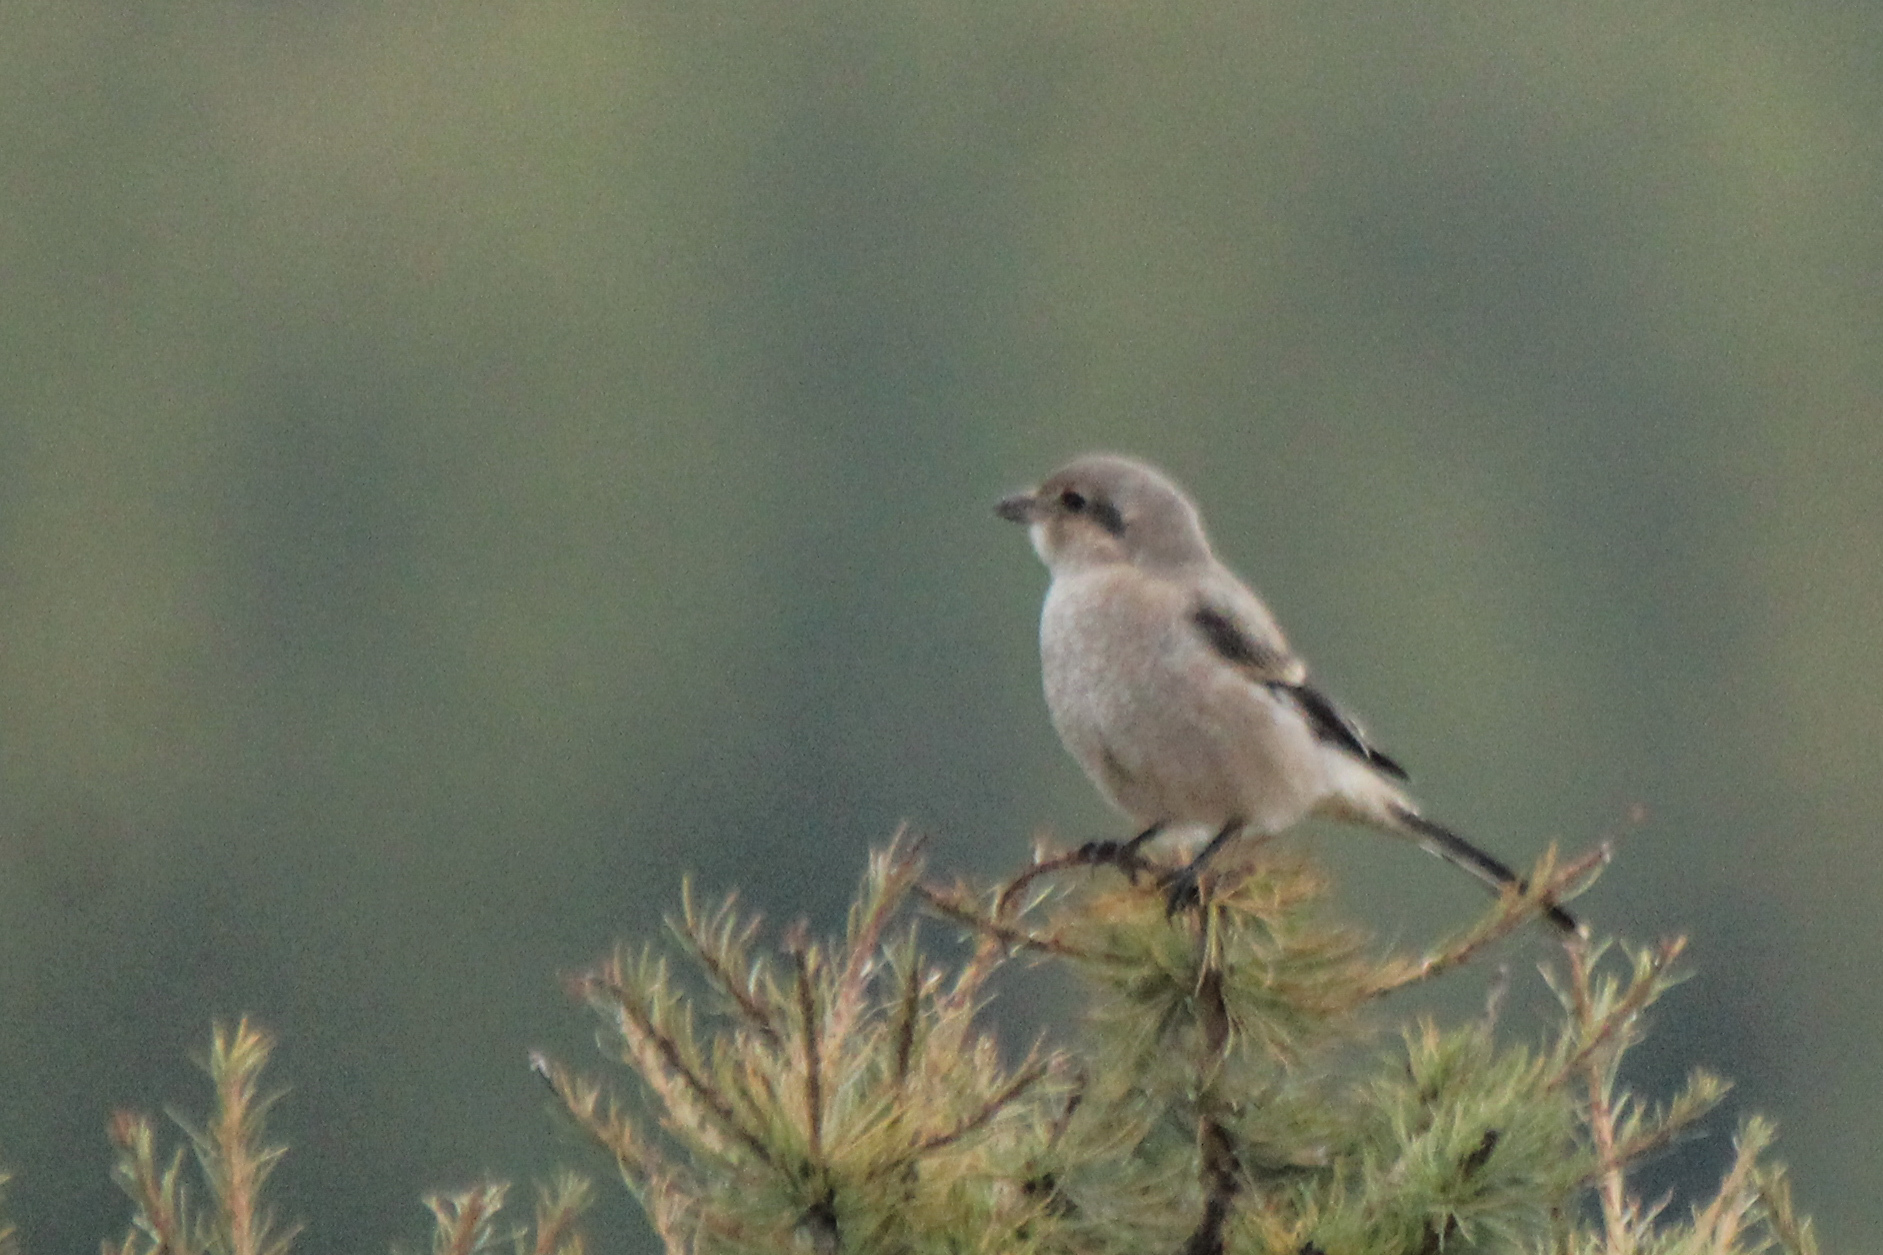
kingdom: Animalia
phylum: Chordata
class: Aves
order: Passeriformes
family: Laniidae
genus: Lanius
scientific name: Lanius borealis
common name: Northern shrike
